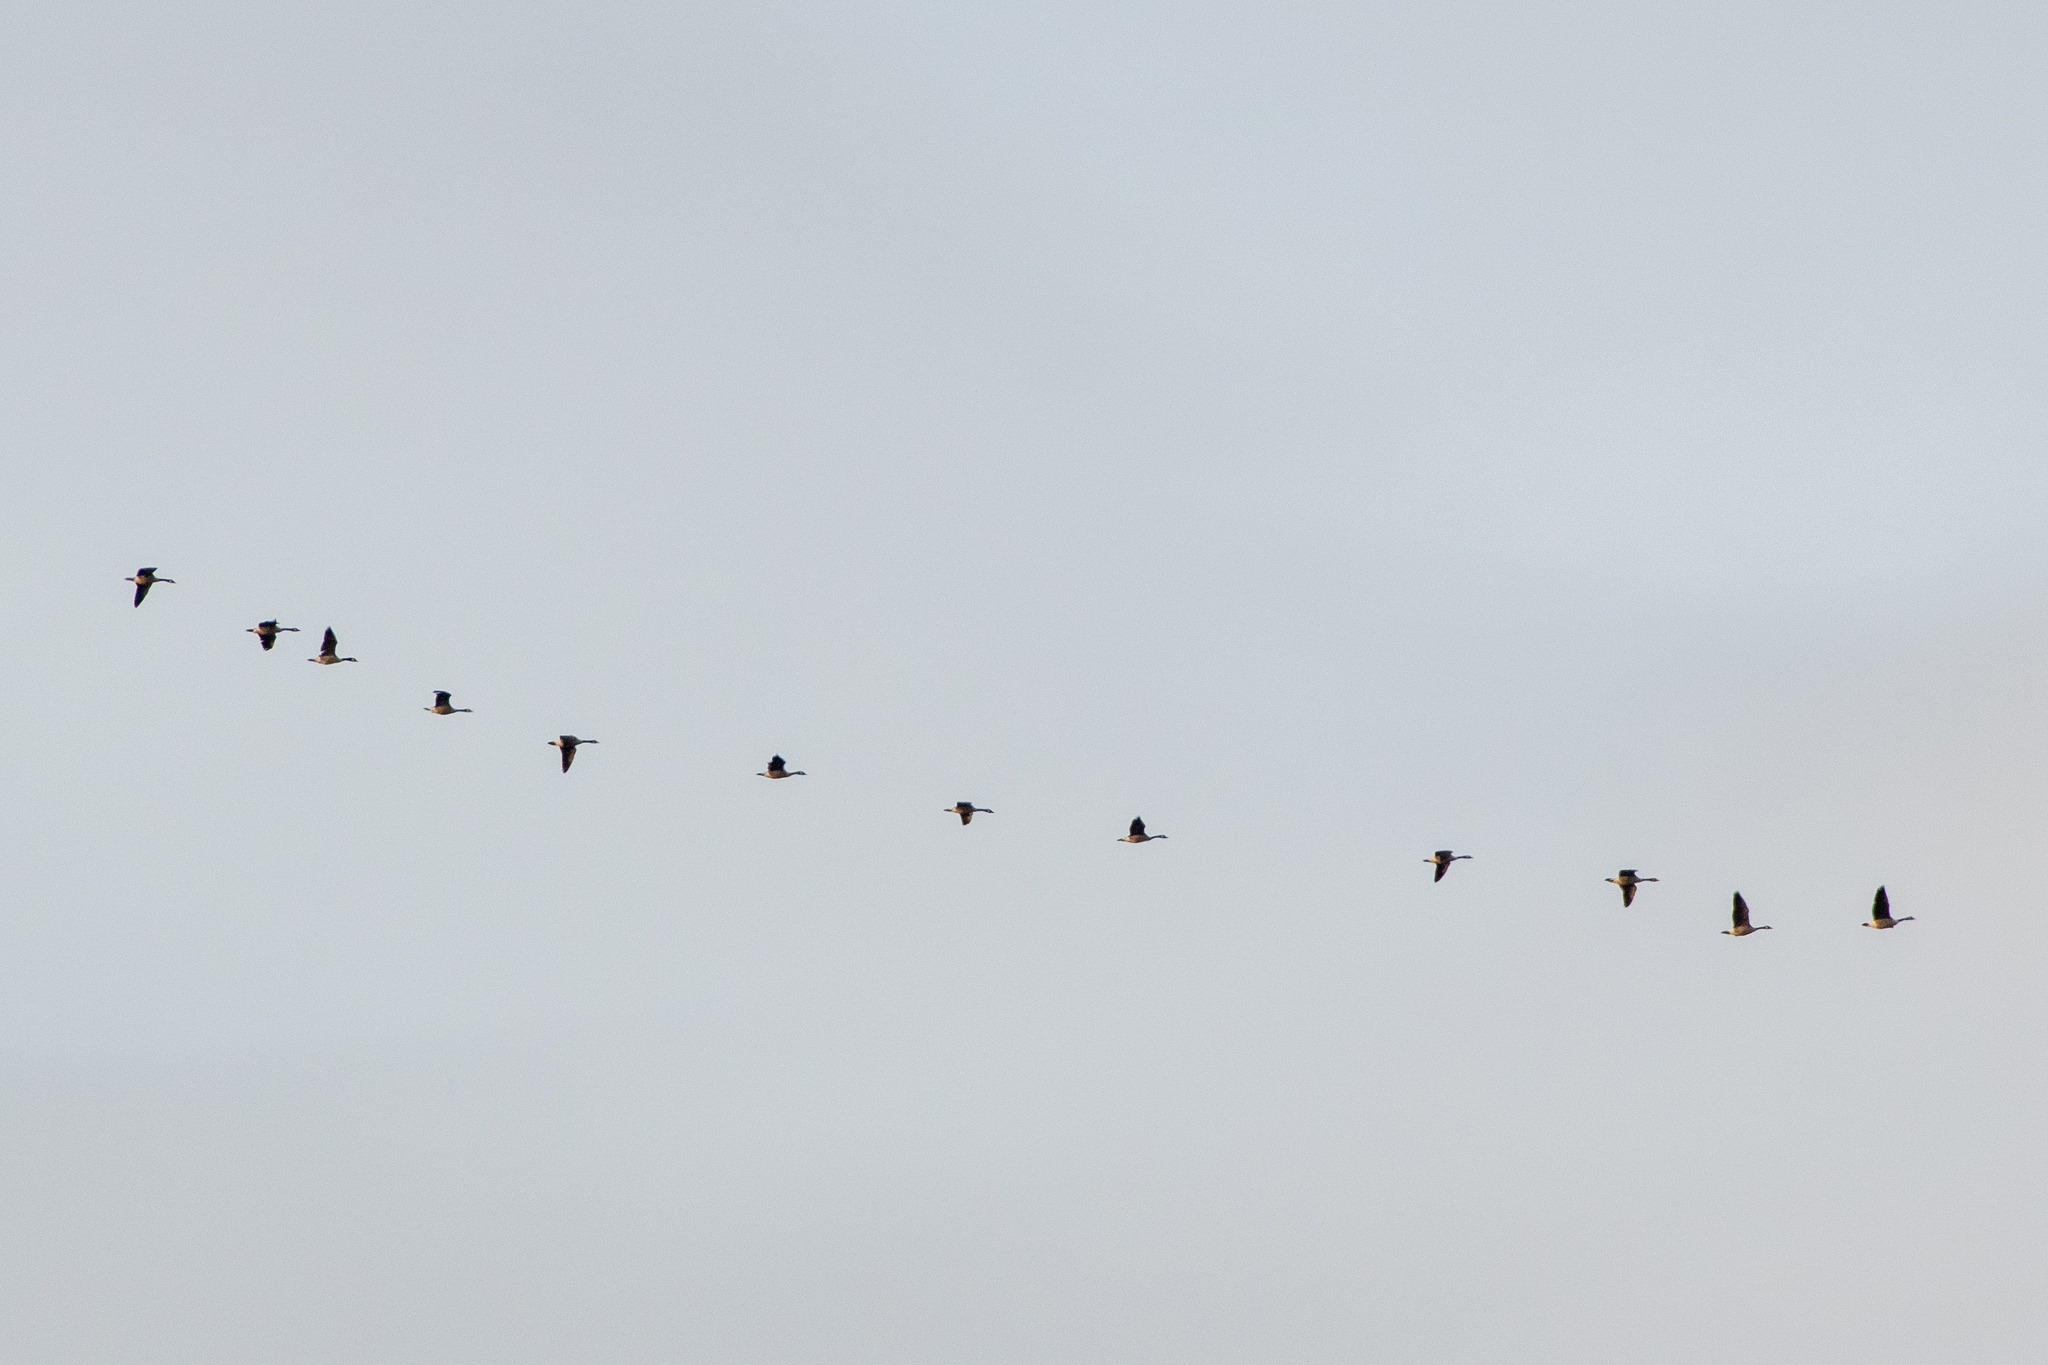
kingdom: Animalia
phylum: Chordata
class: Aves
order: Anseriformes
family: Anatidae
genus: Branta
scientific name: Branta canadensis
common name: Canada goose
